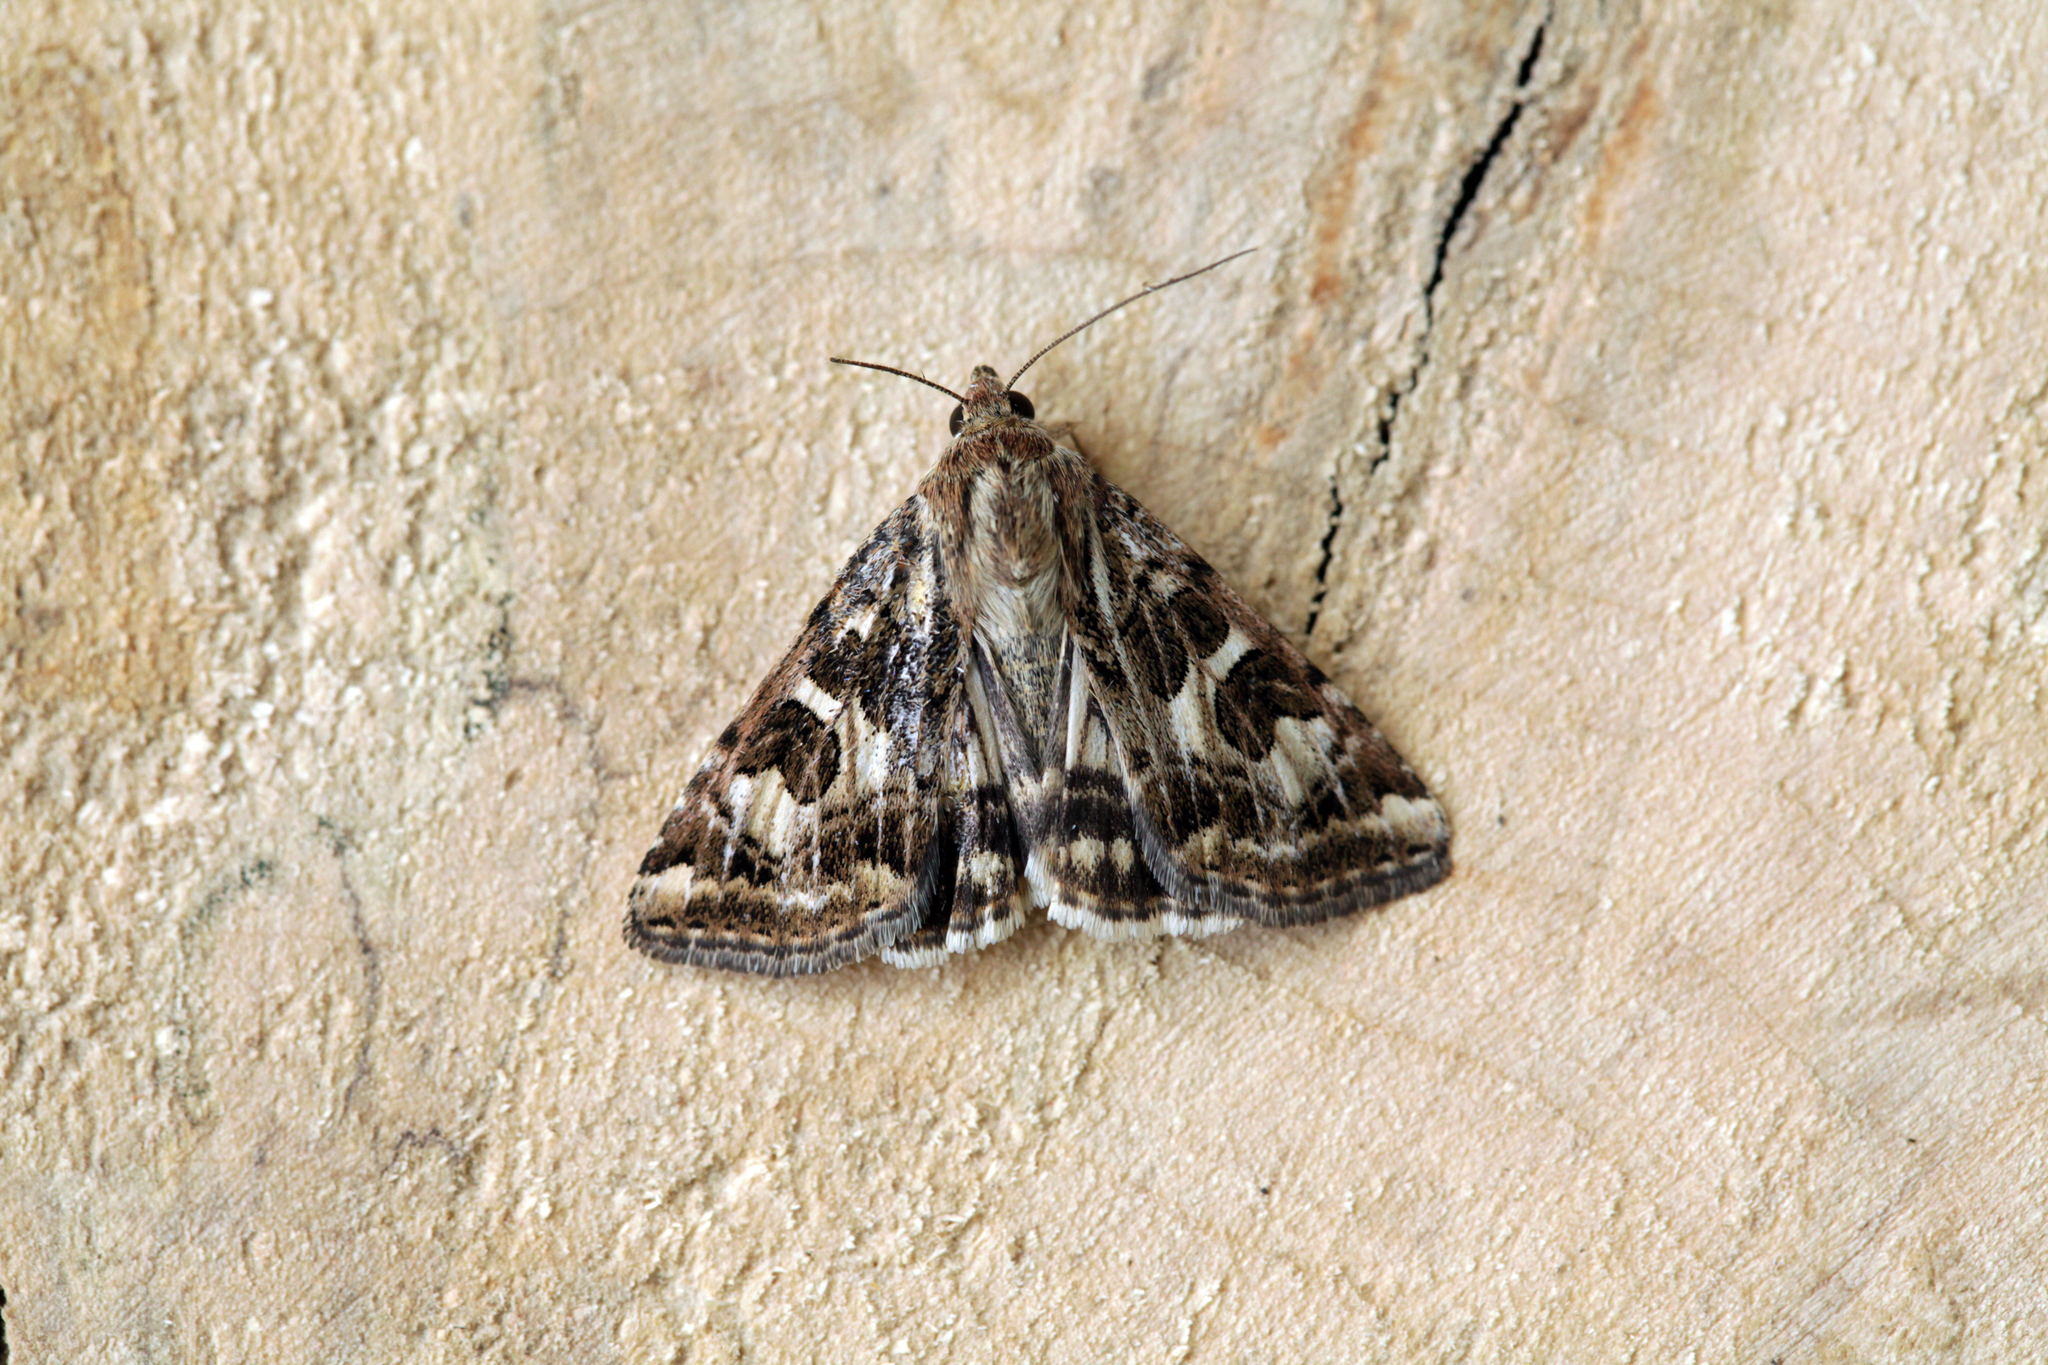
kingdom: Animalia
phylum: Arthropoda
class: Insecta
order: Lepidoptera
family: Noctuidae
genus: Protoschinia
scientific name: Protoschinia scutosa
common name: Spotted clover
